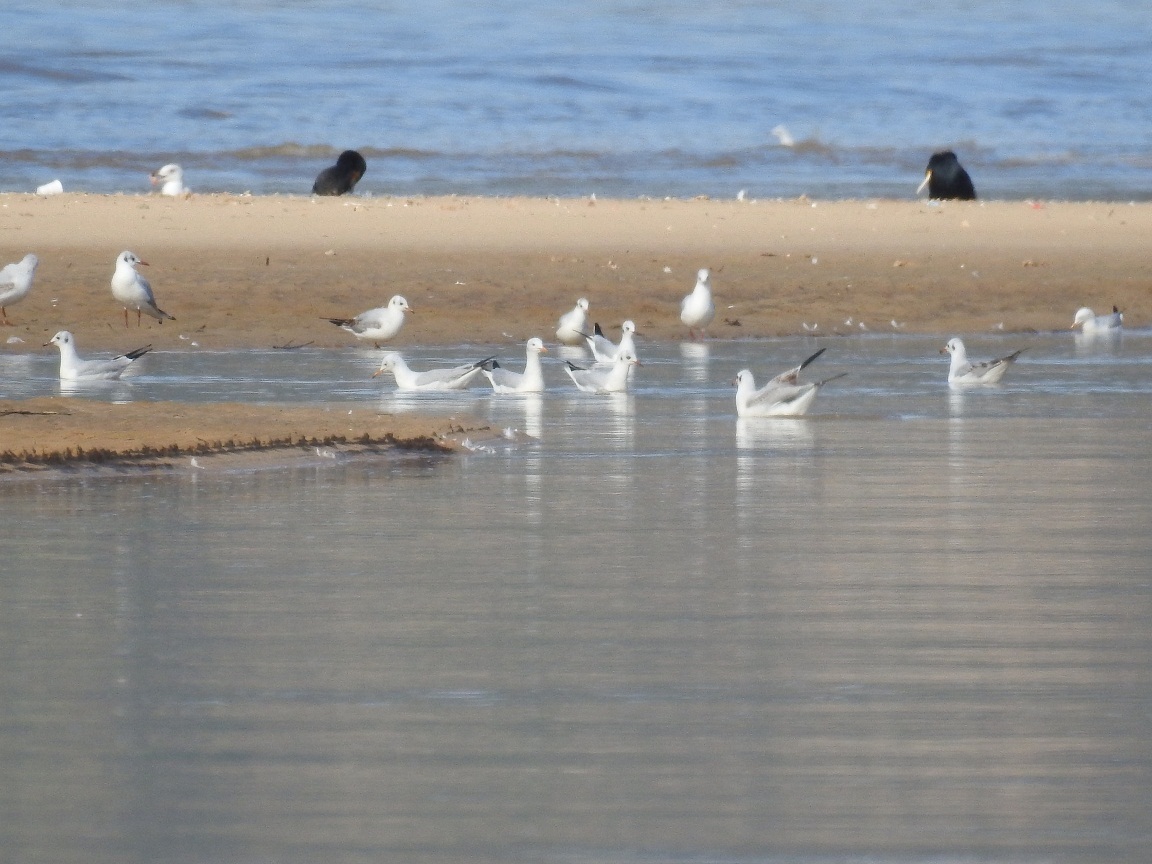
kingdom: Animalia
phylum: Chordata
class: Aves
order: Charadriiformes
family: Laridae
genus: Chroicocephalus
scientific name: Chroicocephalus ridibundus
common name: Black-headed gull
